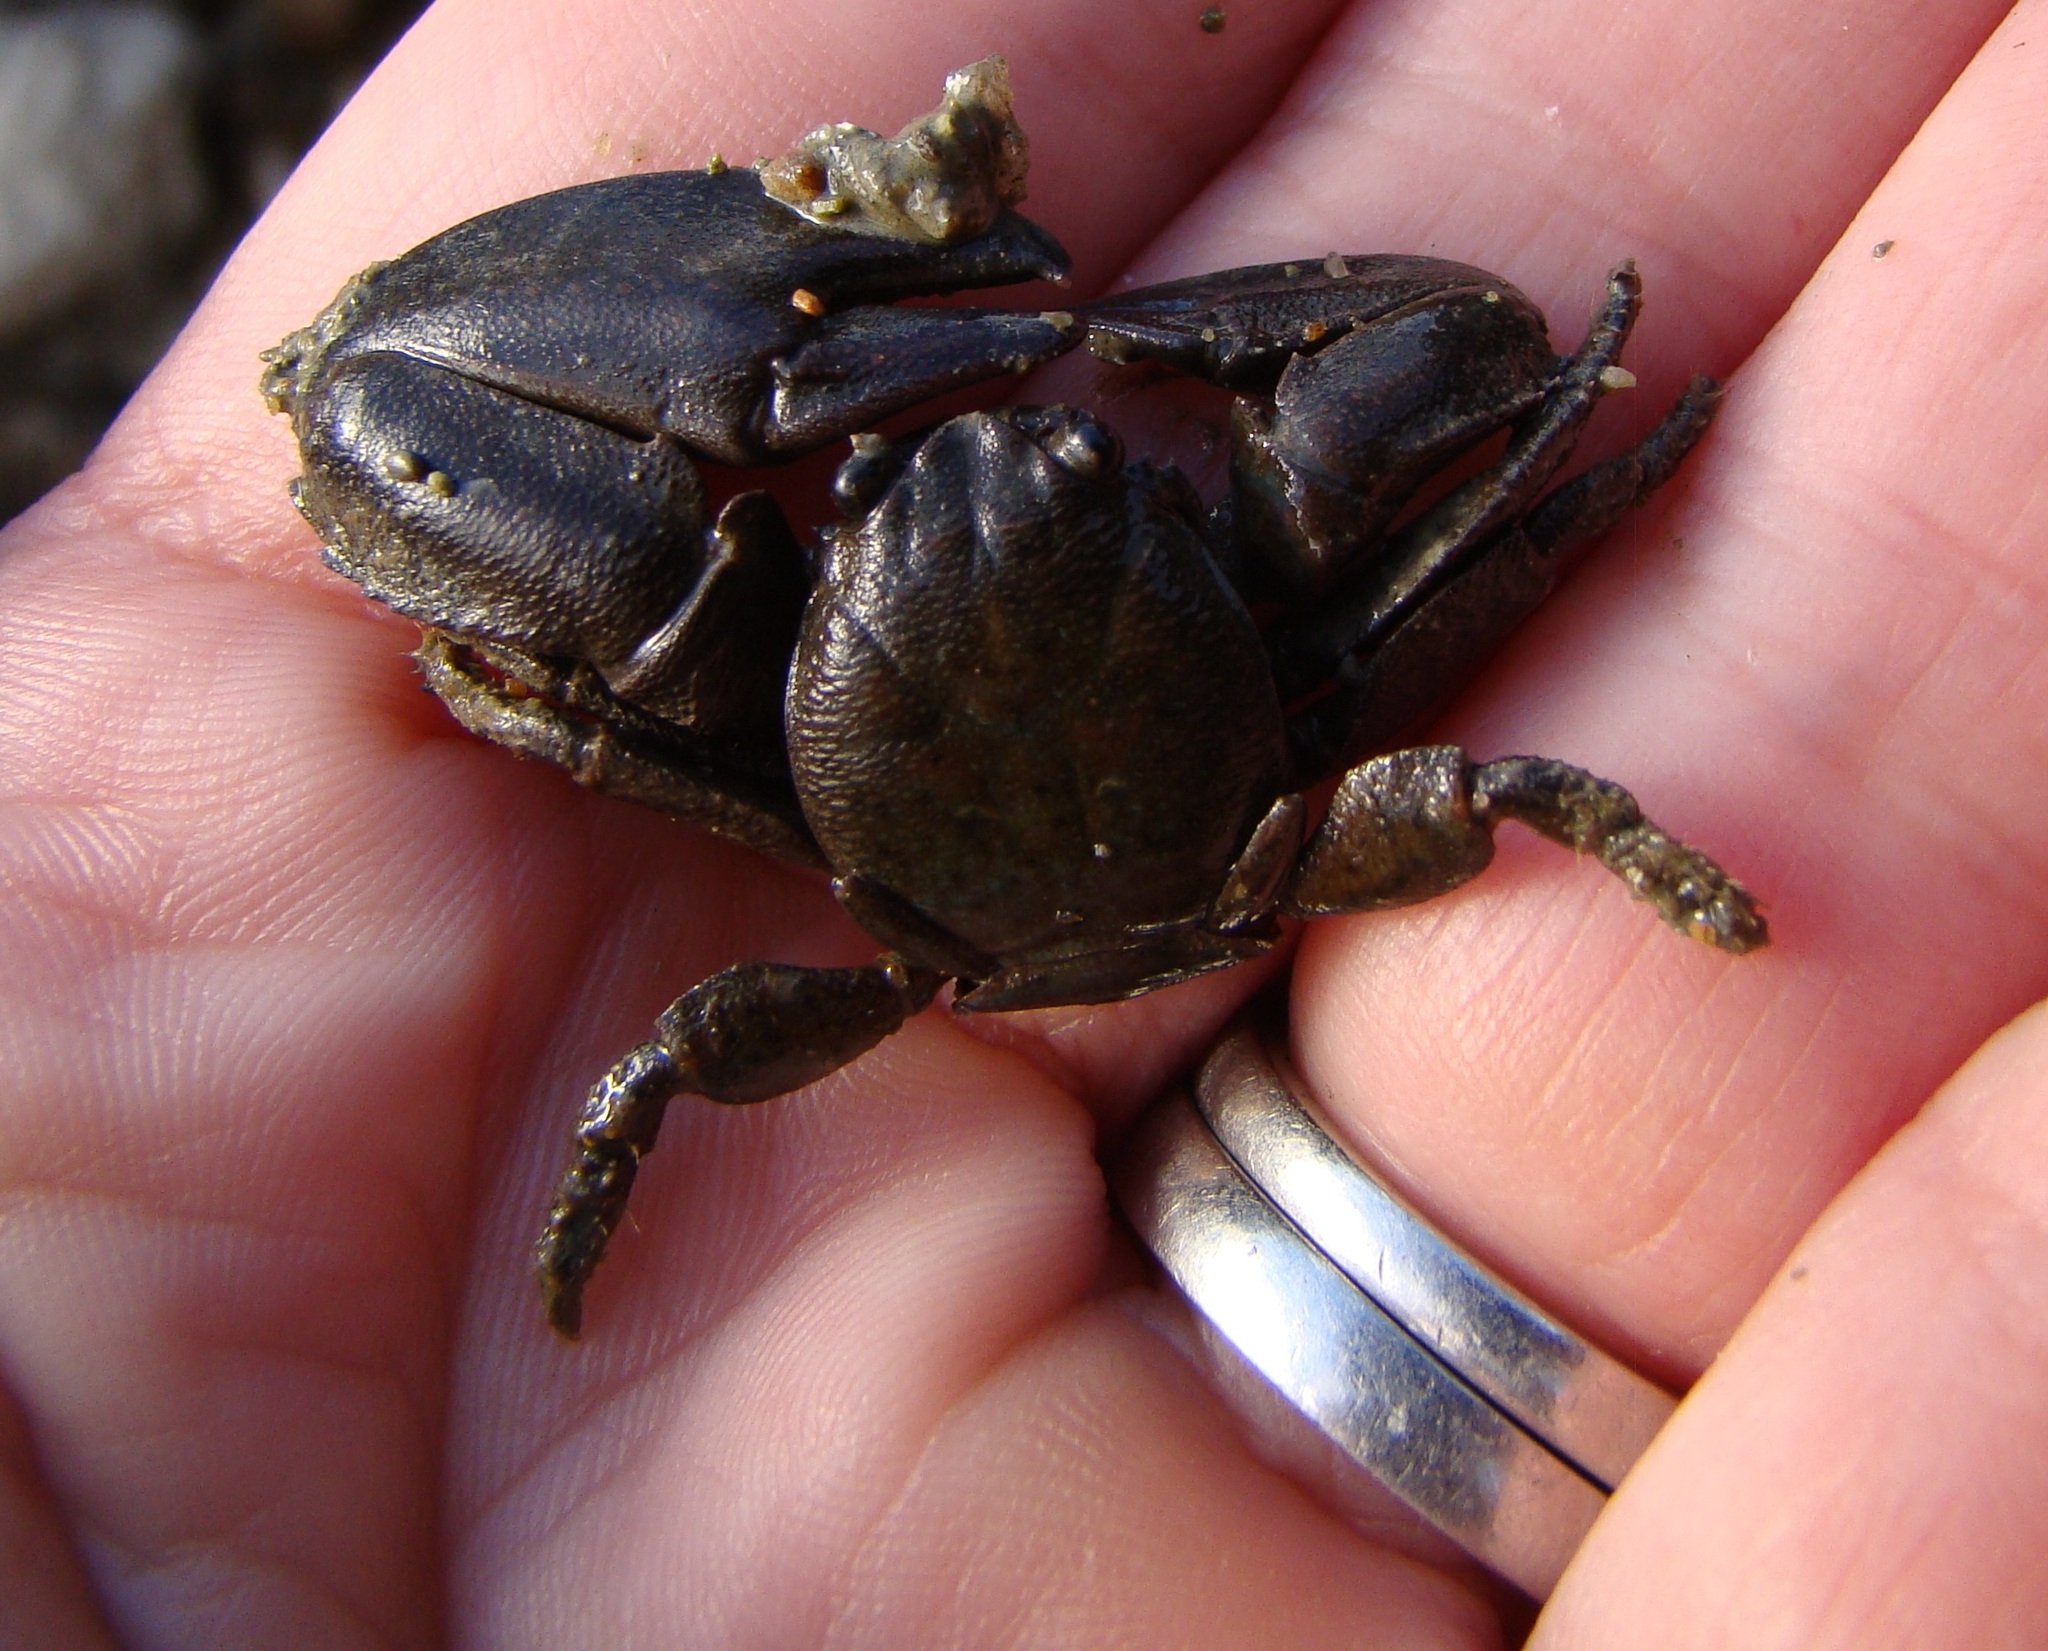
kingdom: Animalia
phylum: Arthropoda
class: Malacostraca
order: Decapoda
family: Porcellanidae
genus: Petrolisthes
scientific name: Petrolisthes elongatus
